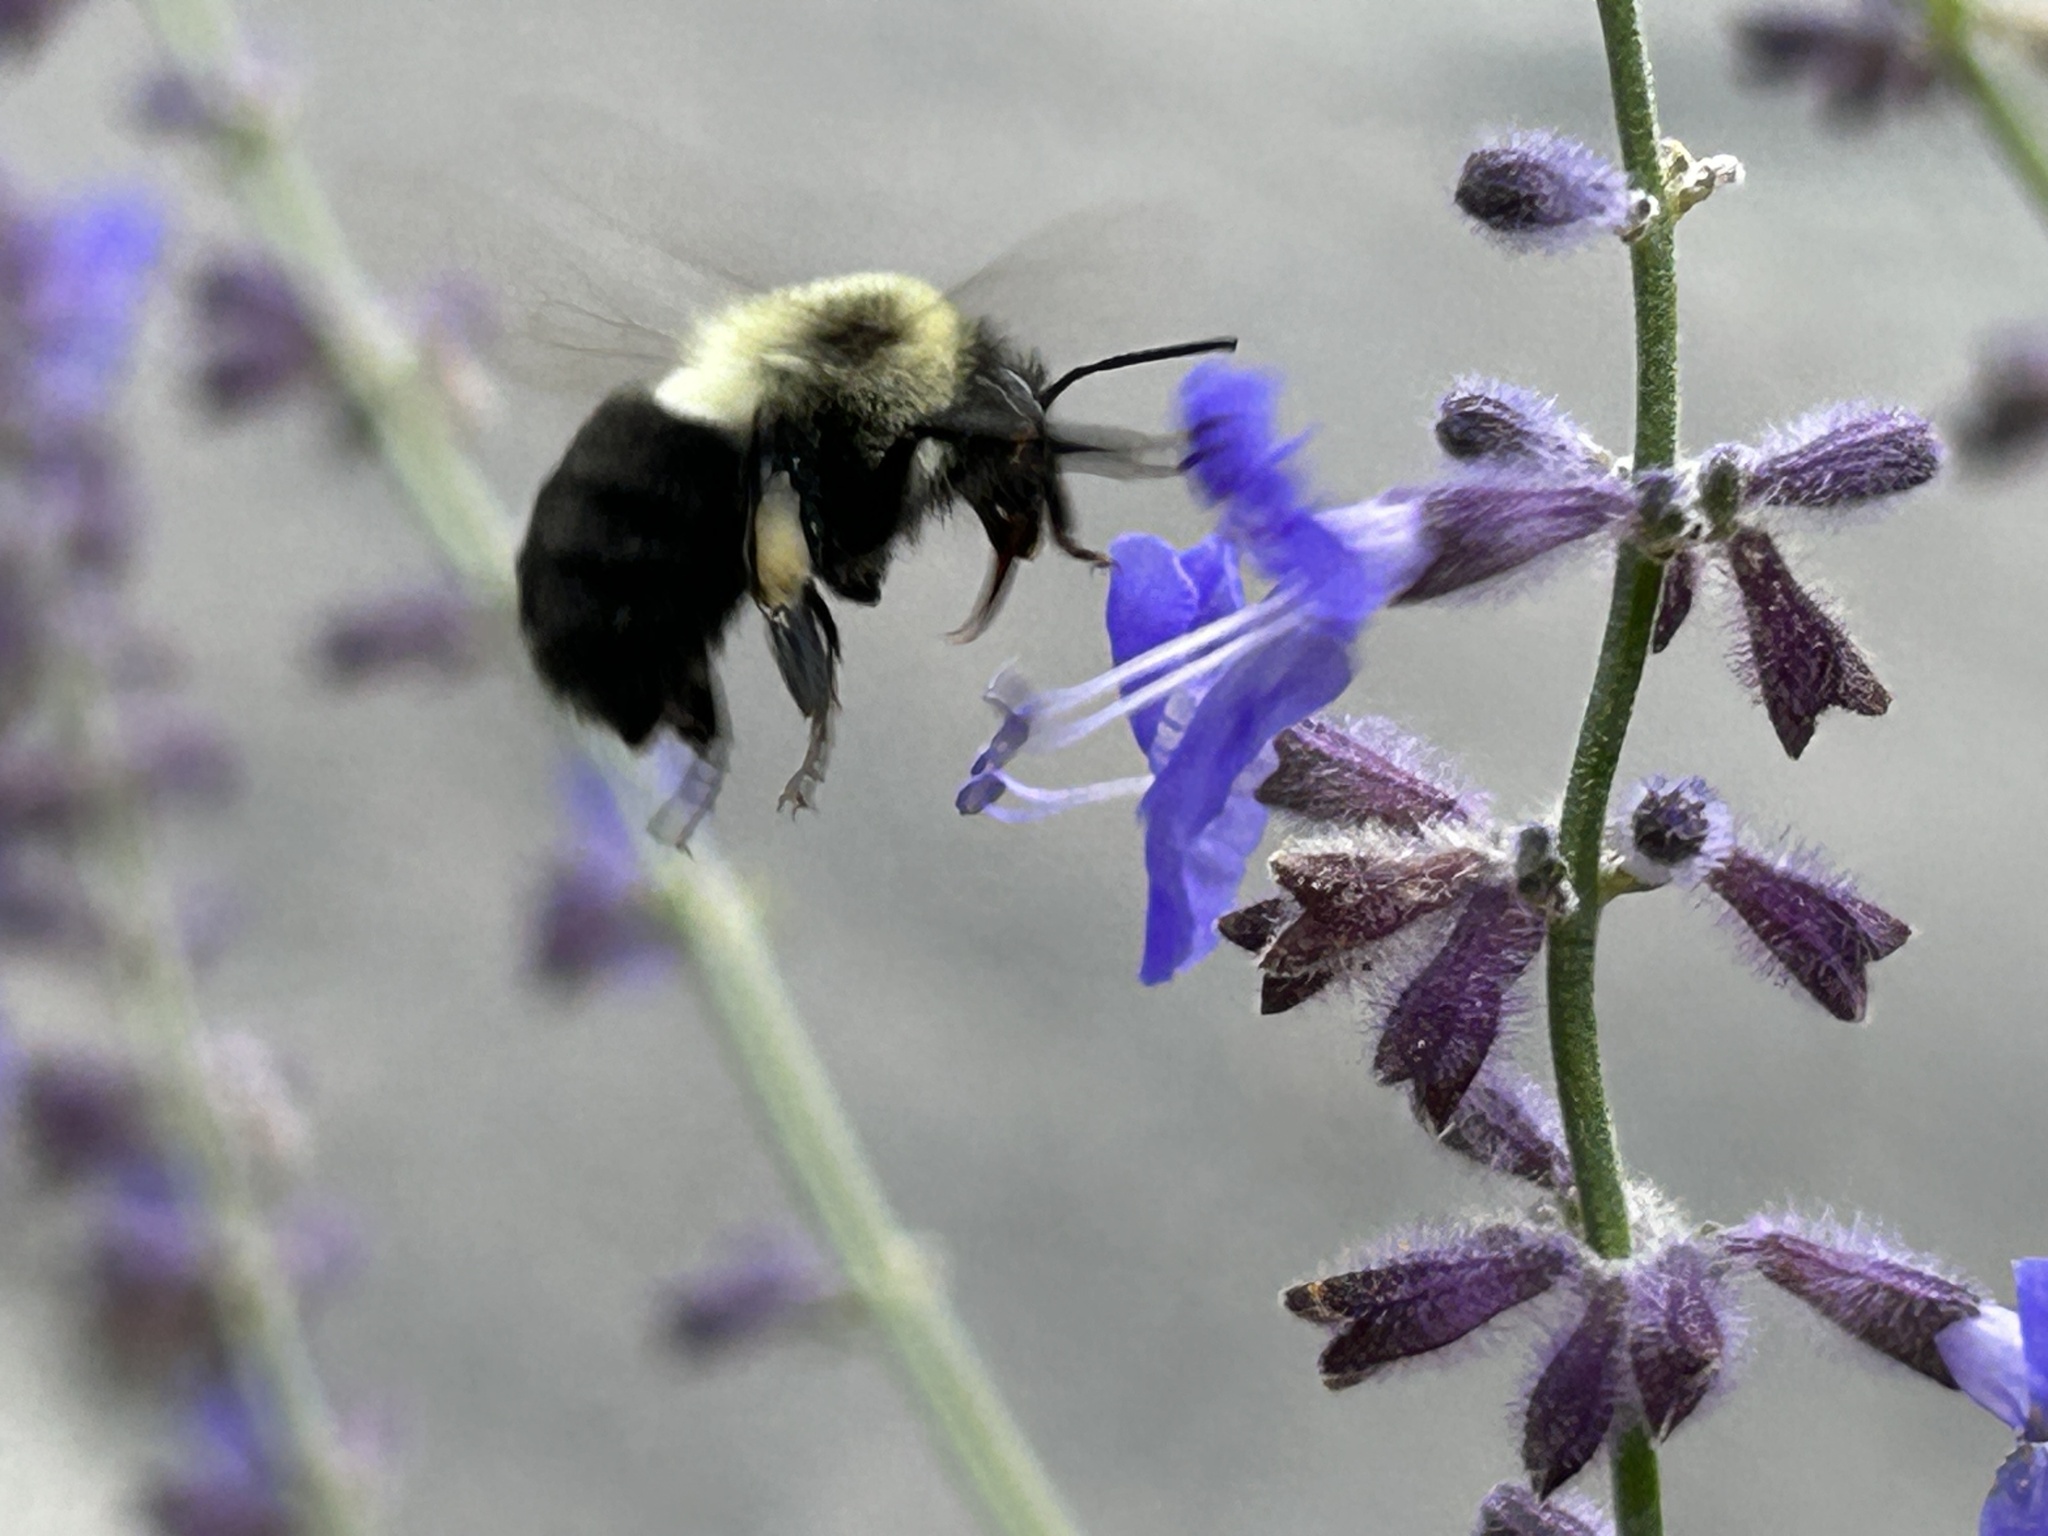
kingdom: Animalia
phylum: Arthropoda
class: Insecta
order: Hymenoptera
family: Apidae
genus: Bombus
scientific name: Bombus impatiens
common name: Common eastern bumble bee
